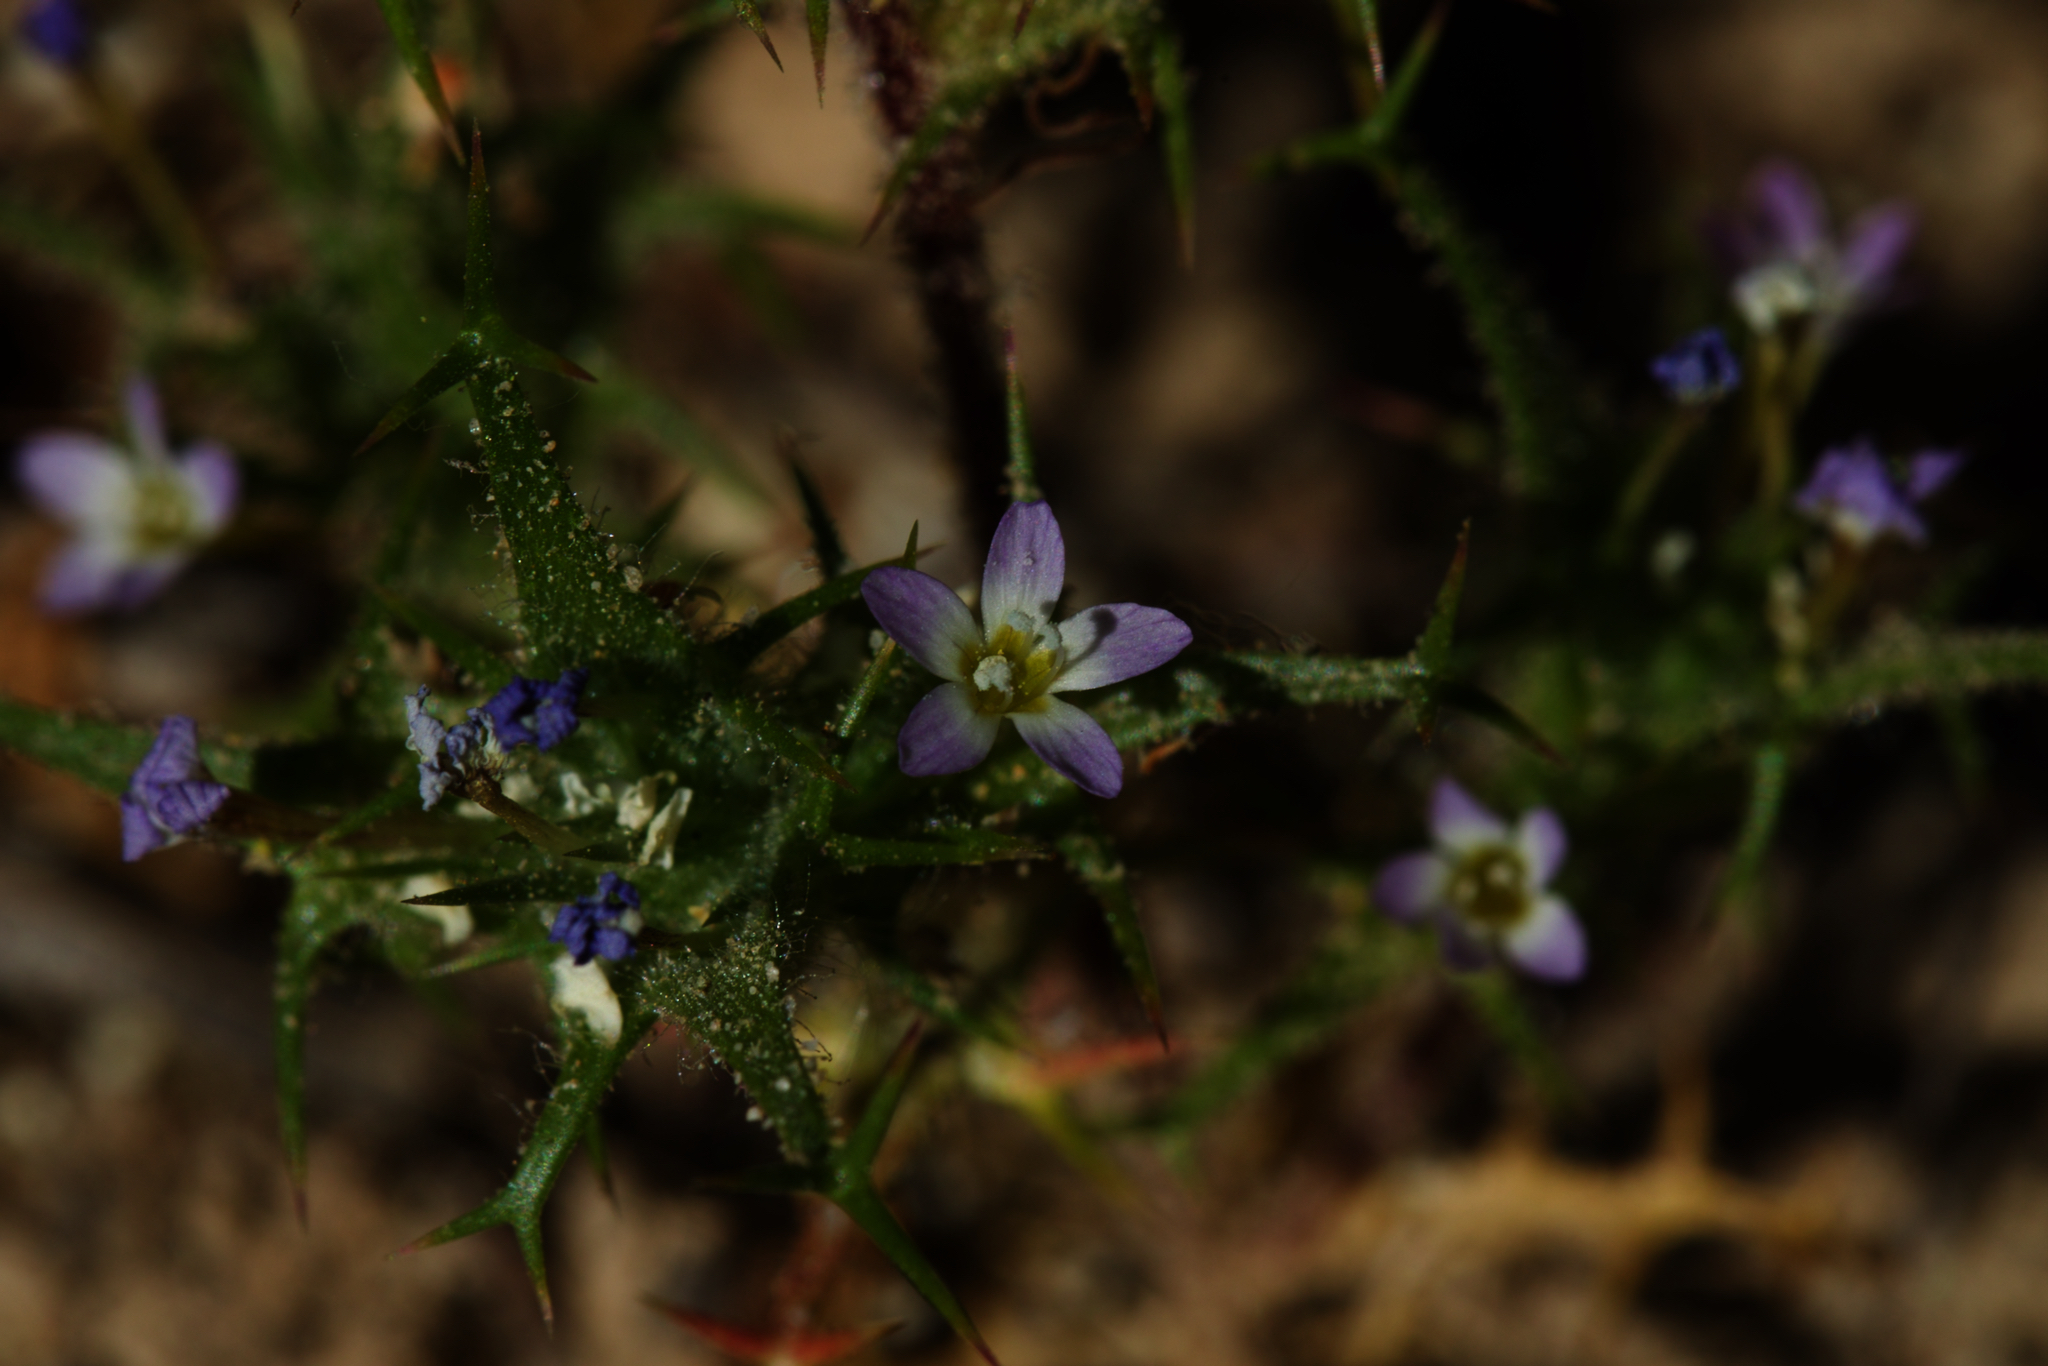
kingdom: Plantae
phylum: Tracheophyta
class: Magnoliopsida
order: Ericales
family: Polemoniaceae
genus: Navarretia
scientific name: Navarretia hamata
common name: Hooked navarretia
